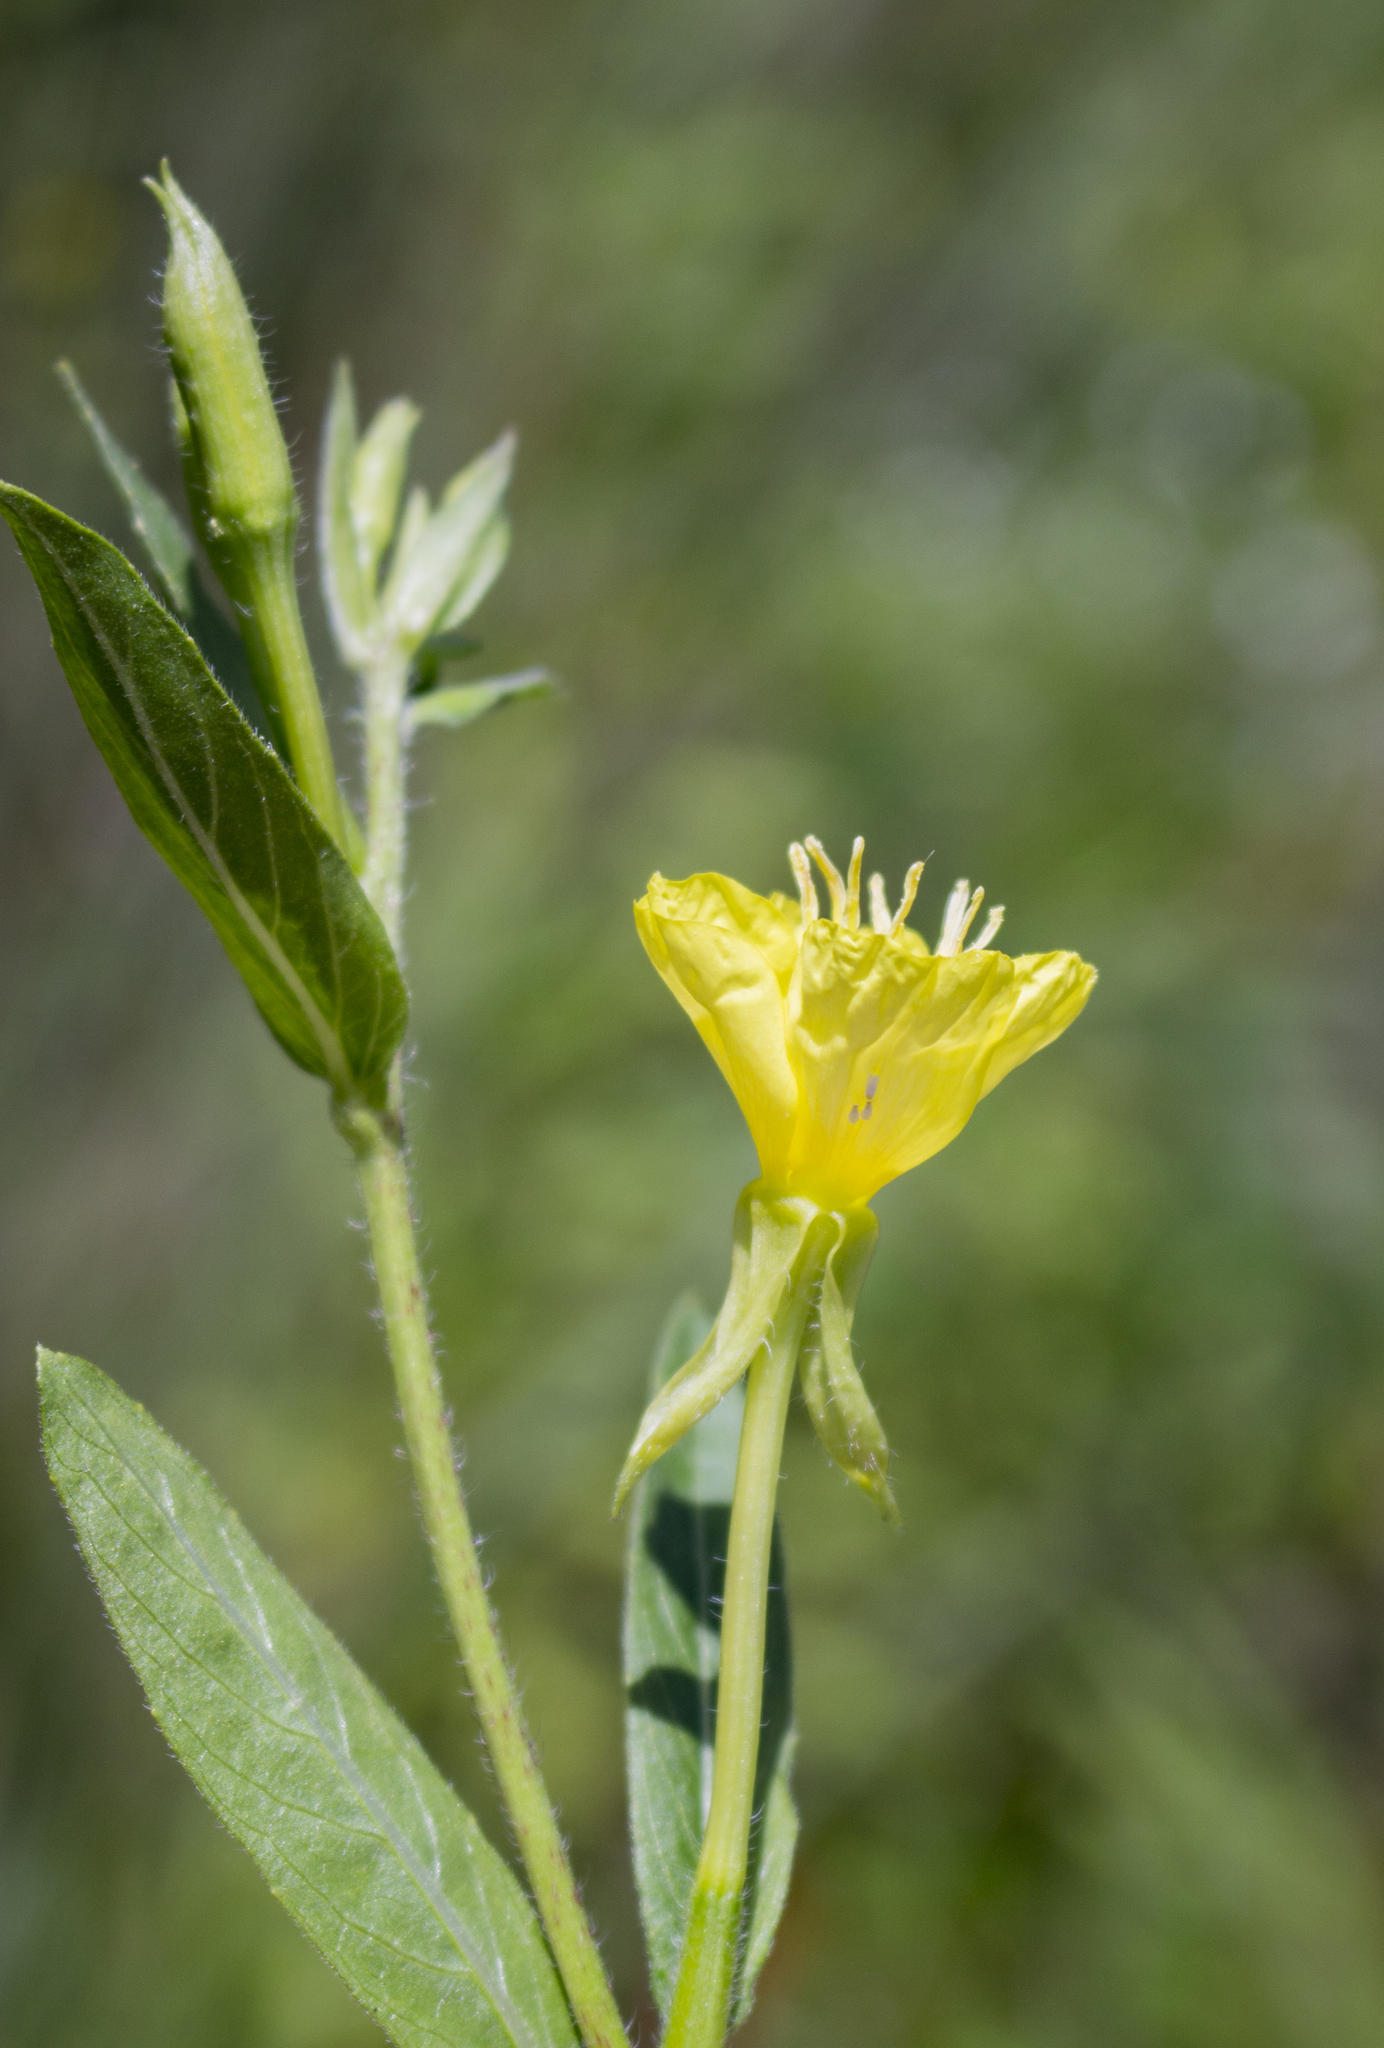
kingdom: Plantae
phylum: Tracheophyta
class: Magnoliopsida
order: Myrtales
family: Onagraceae
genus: Oenothera
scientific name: Oenothera biennis
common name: Common evening-primrose
